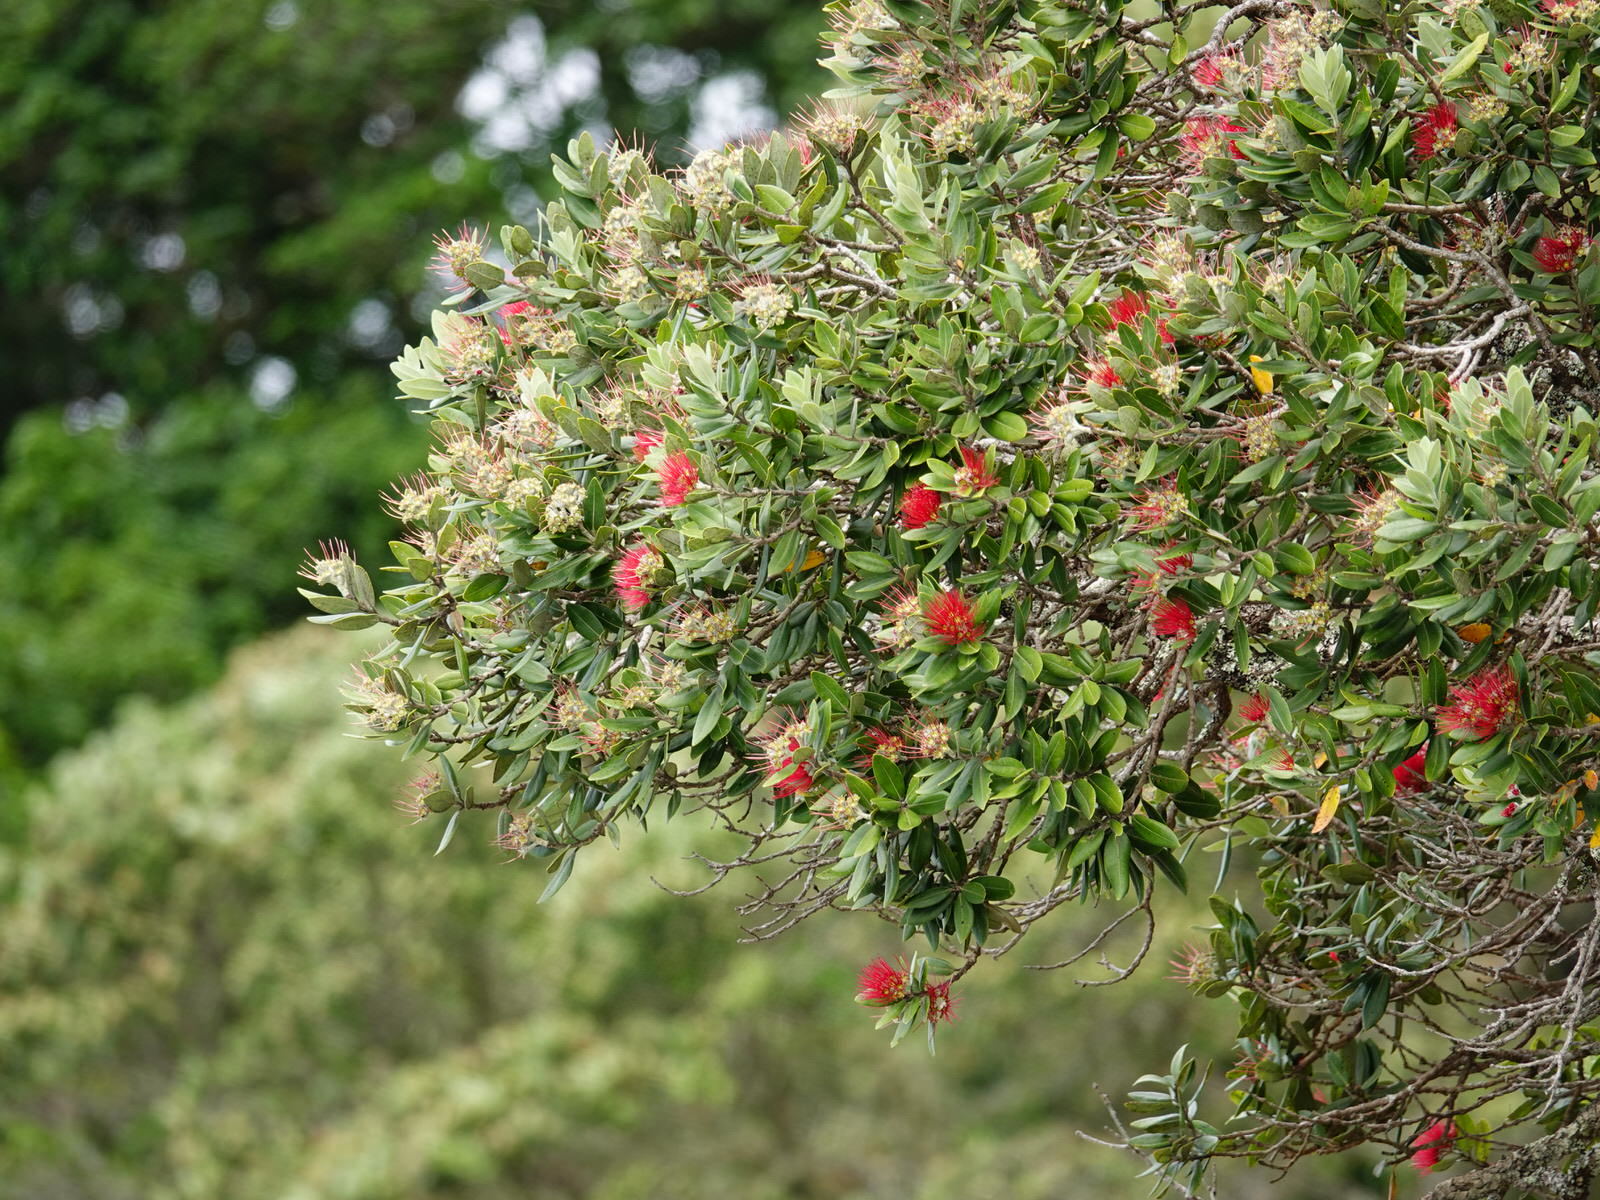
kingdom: Plantae
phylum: Tracheophyta
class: Magnoliopsida
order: Myrtales
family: Myrtaceae
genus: Metrosideros
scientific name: Metrosideros excelsa
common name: New zealand christmastree
